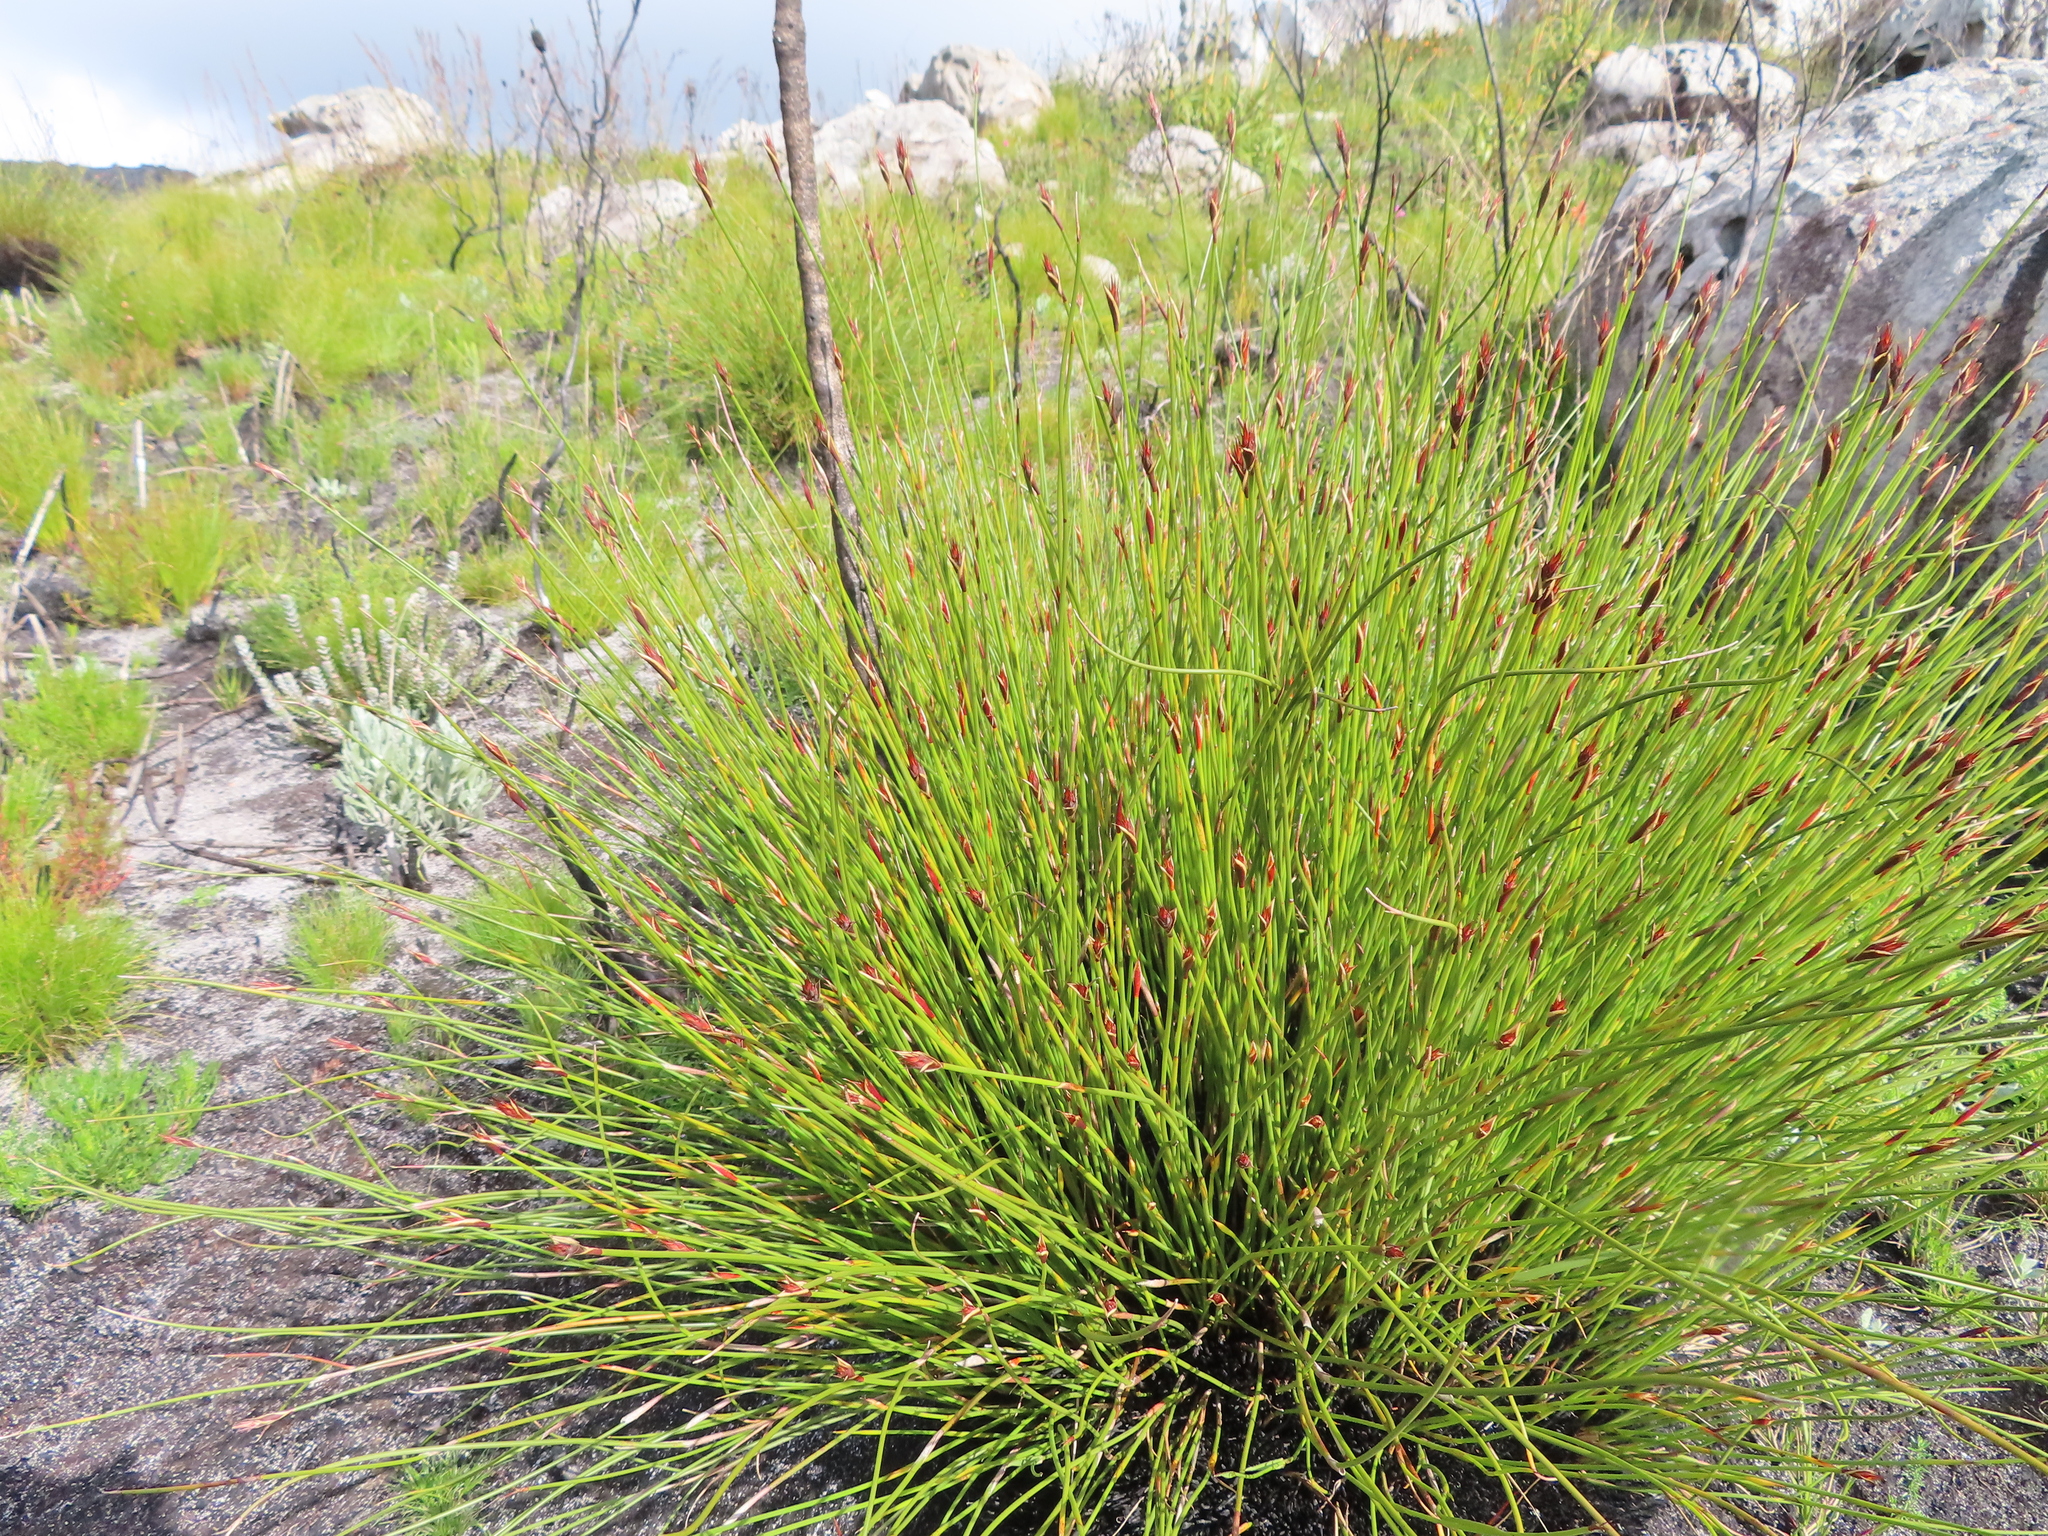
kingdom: Plantae
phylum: Tracheophyta
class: Liliopsida
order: Poales
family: Restionaceae
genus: Hypodiscus
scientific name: Hypodiscus aristatus
